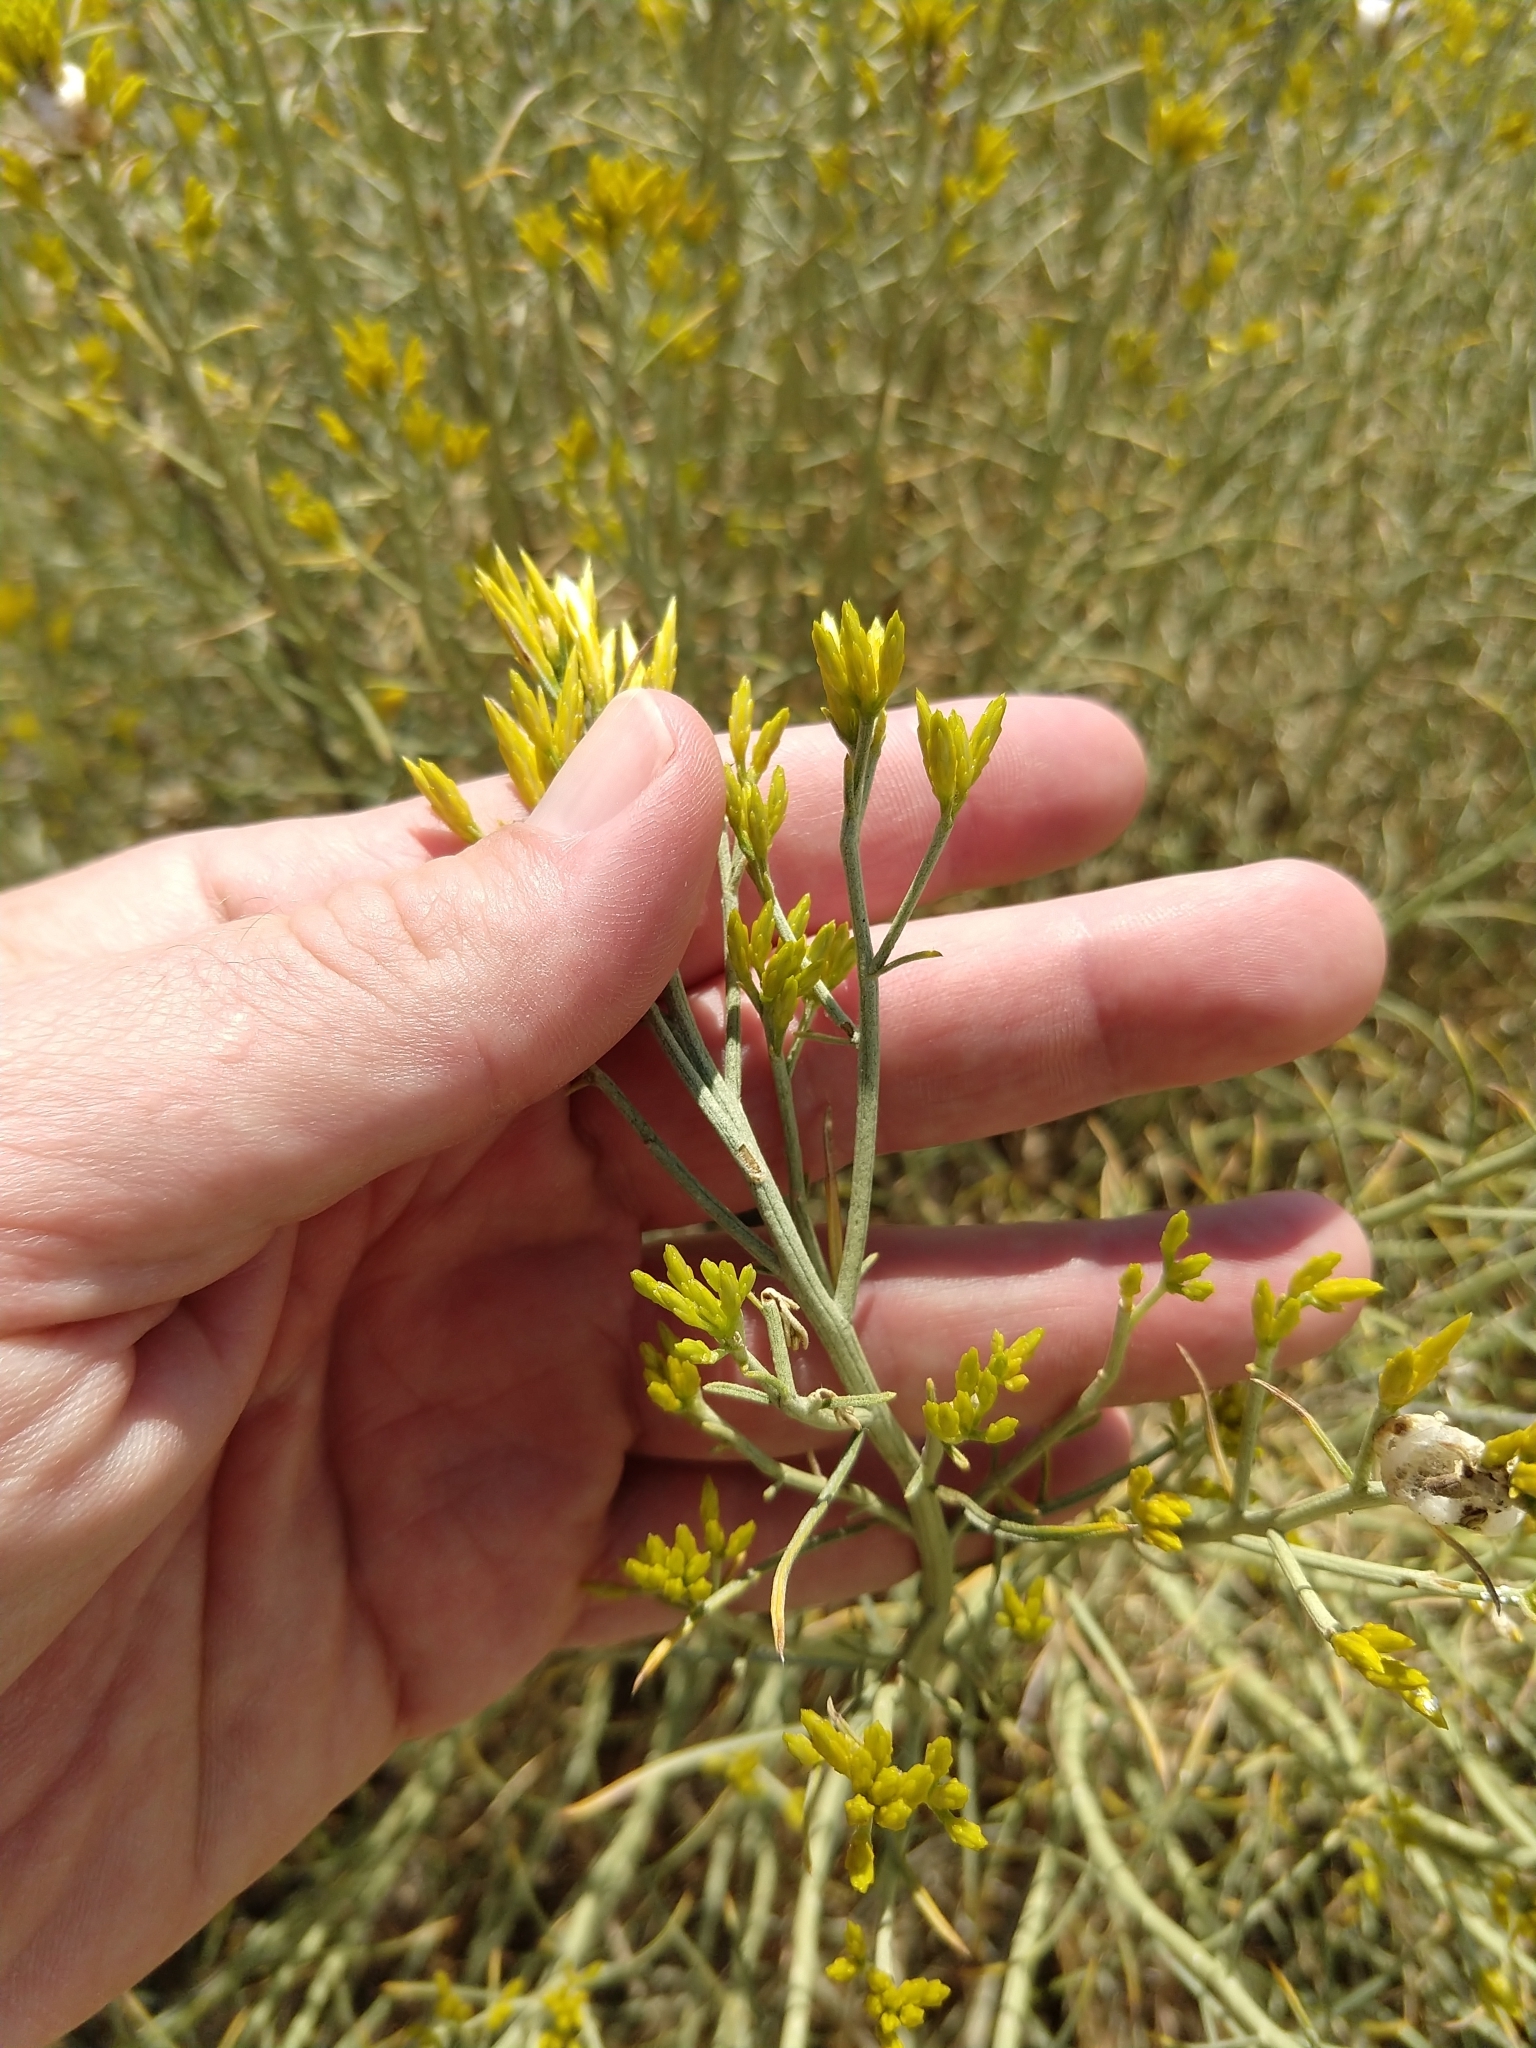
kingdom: Plantae
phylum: Tracheophyta
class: Magnoliopsida
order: Asterales
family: Asteraceae
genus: Ericameria
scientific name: Ericameria nauseosa
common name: Rubber rabbitbrush
